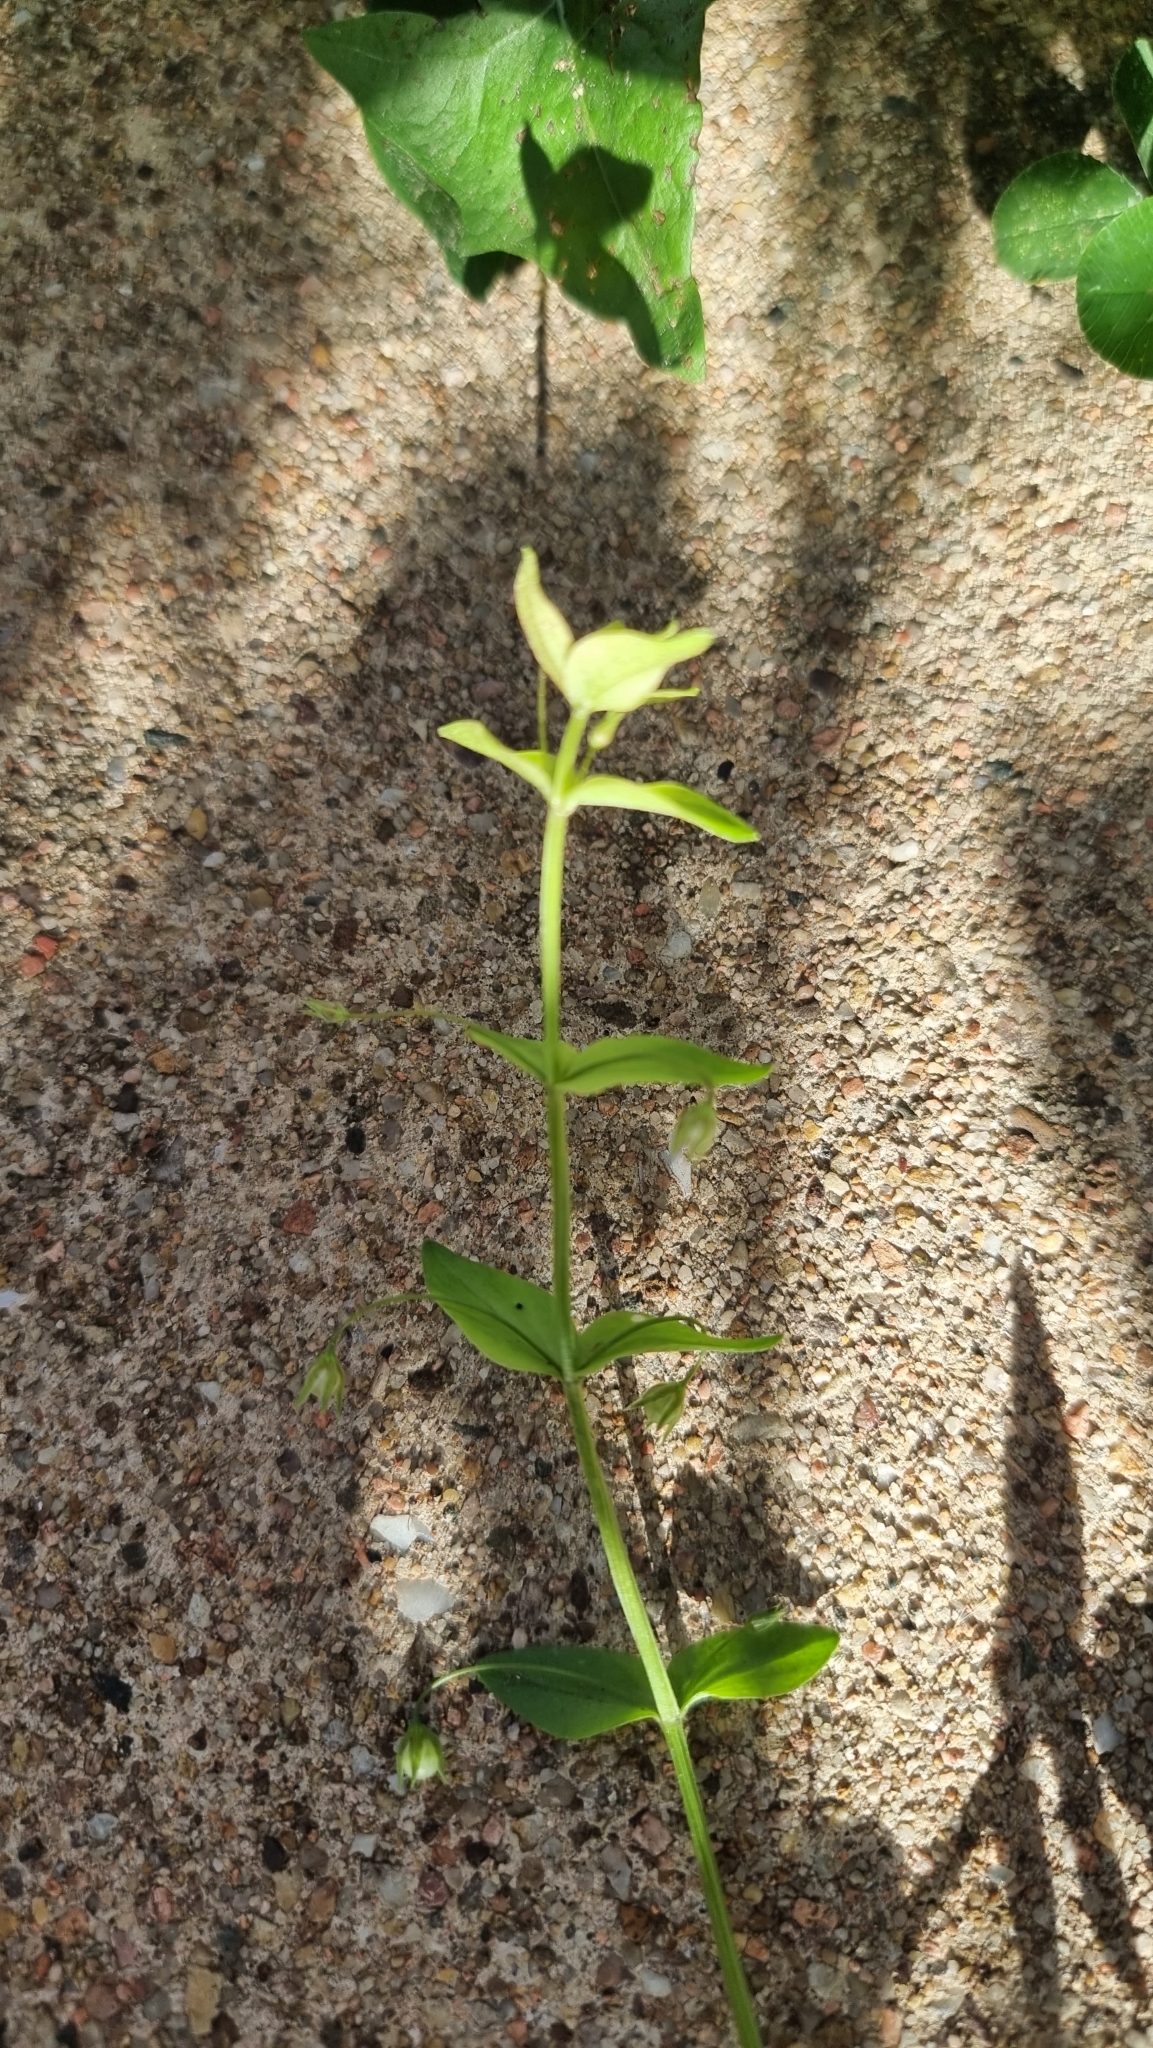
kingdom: Plantae
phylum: Tracheophyta
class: Magnoliopsida
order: Ericales
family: Primulaceae
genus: Lysimachia
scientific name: Lysimachia Anagallis spec
